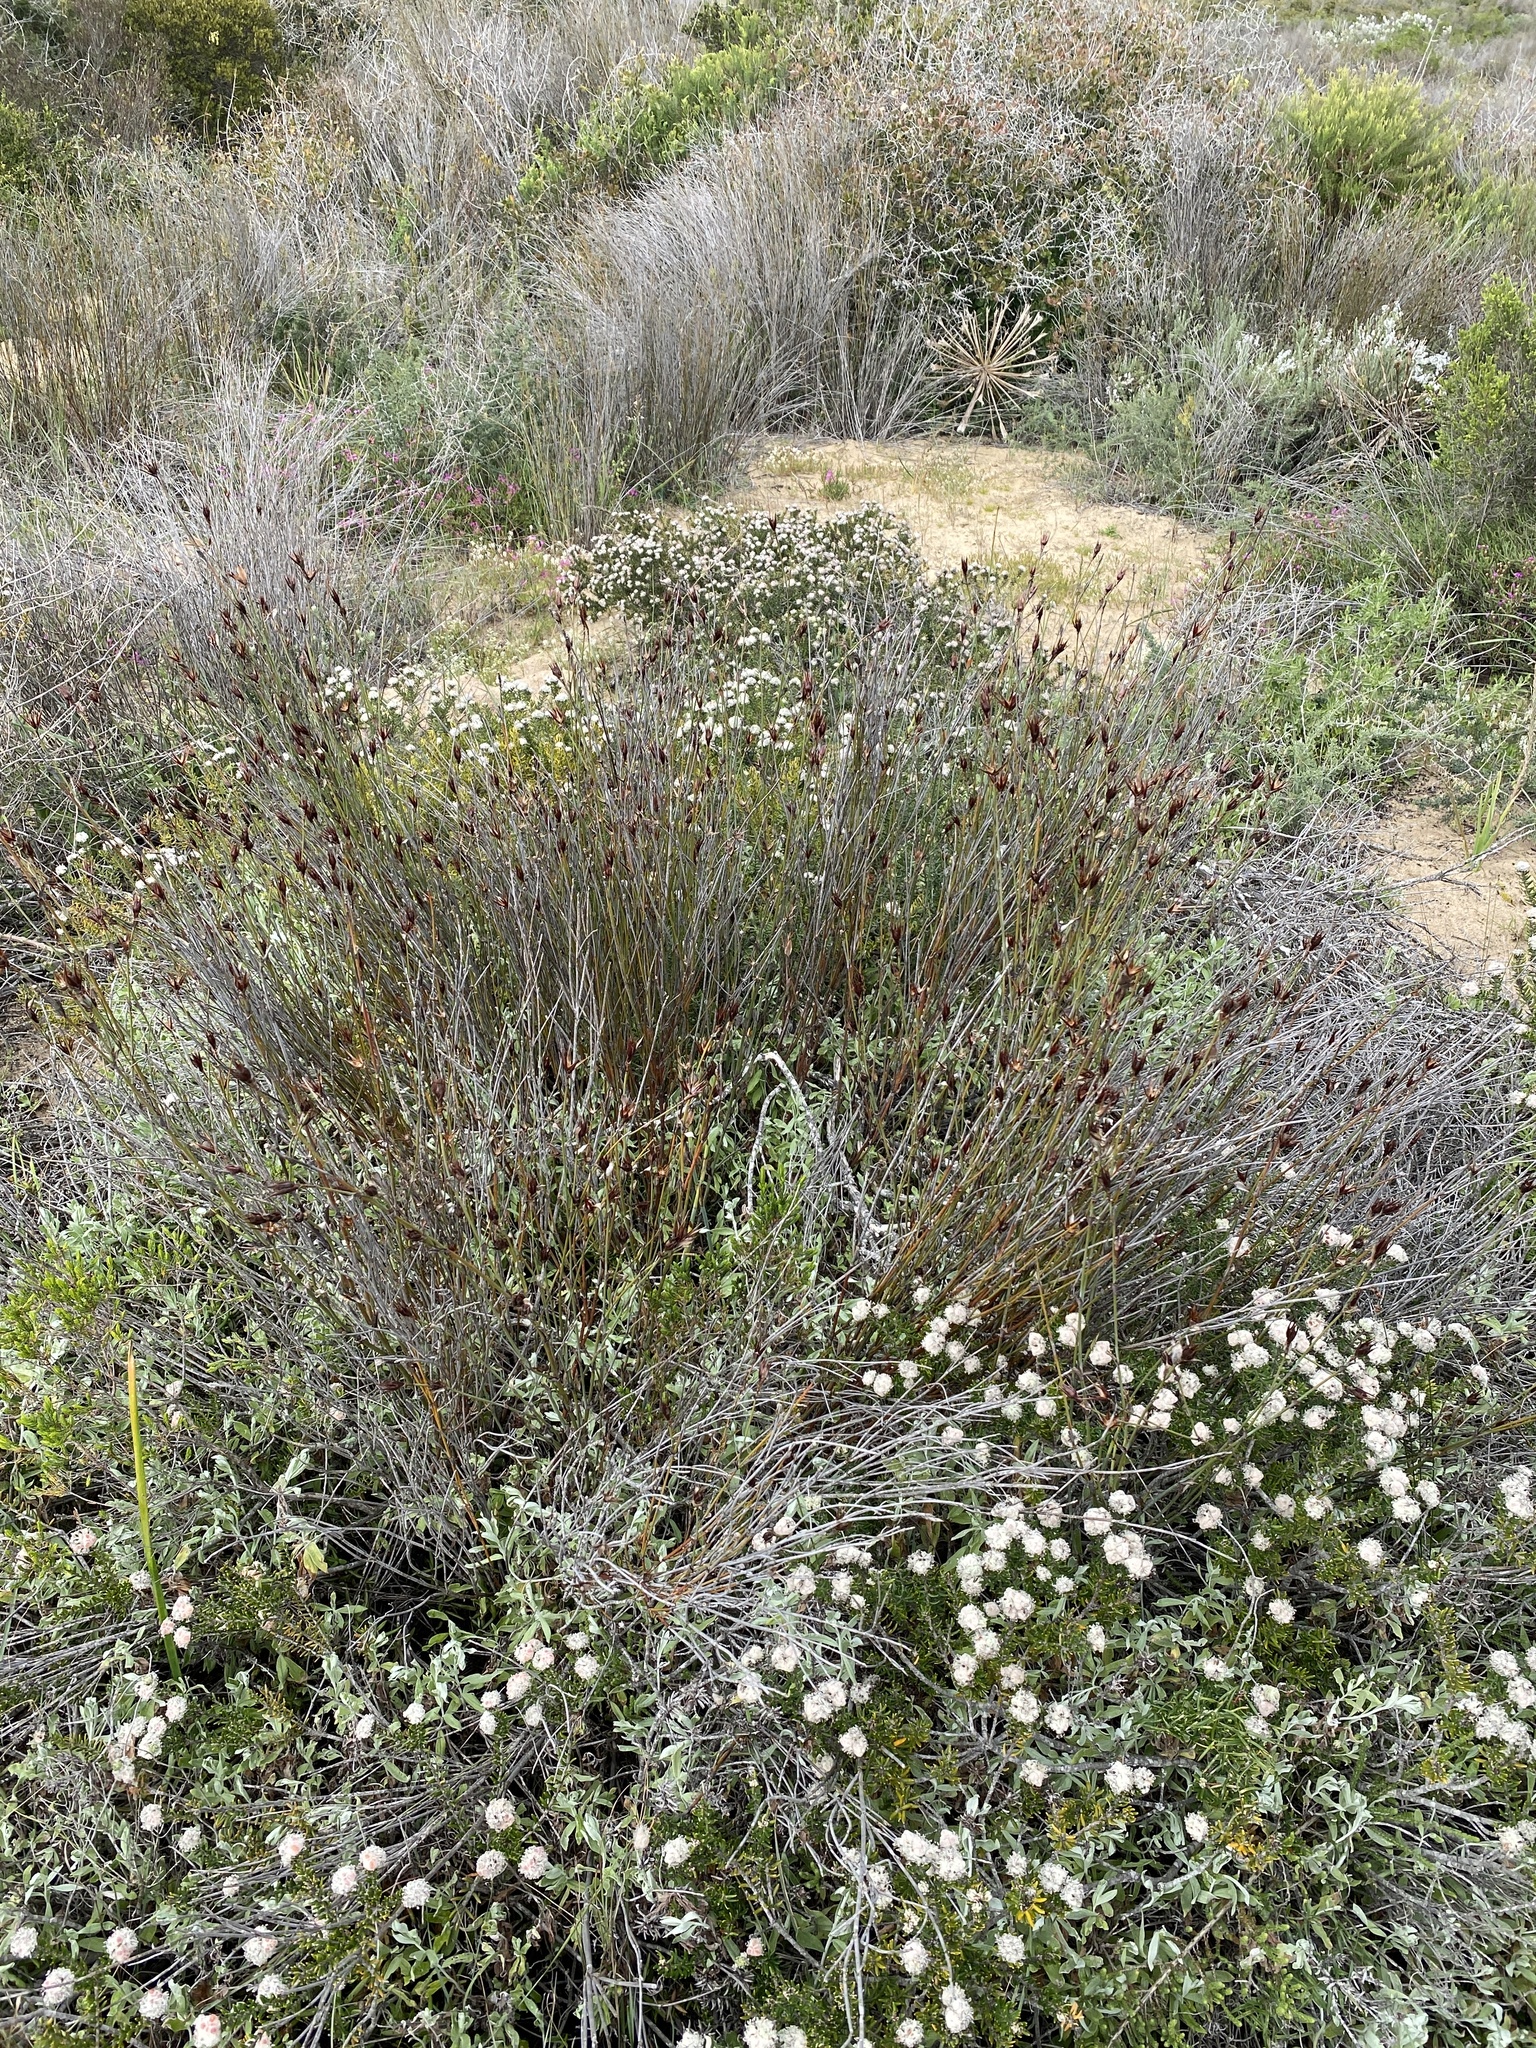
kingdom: Plantae
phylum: Tracheophyta
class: Liliopsida
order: Poales
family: Restionaceae
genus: Willdenowia
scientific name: Willdenowia incurvata
